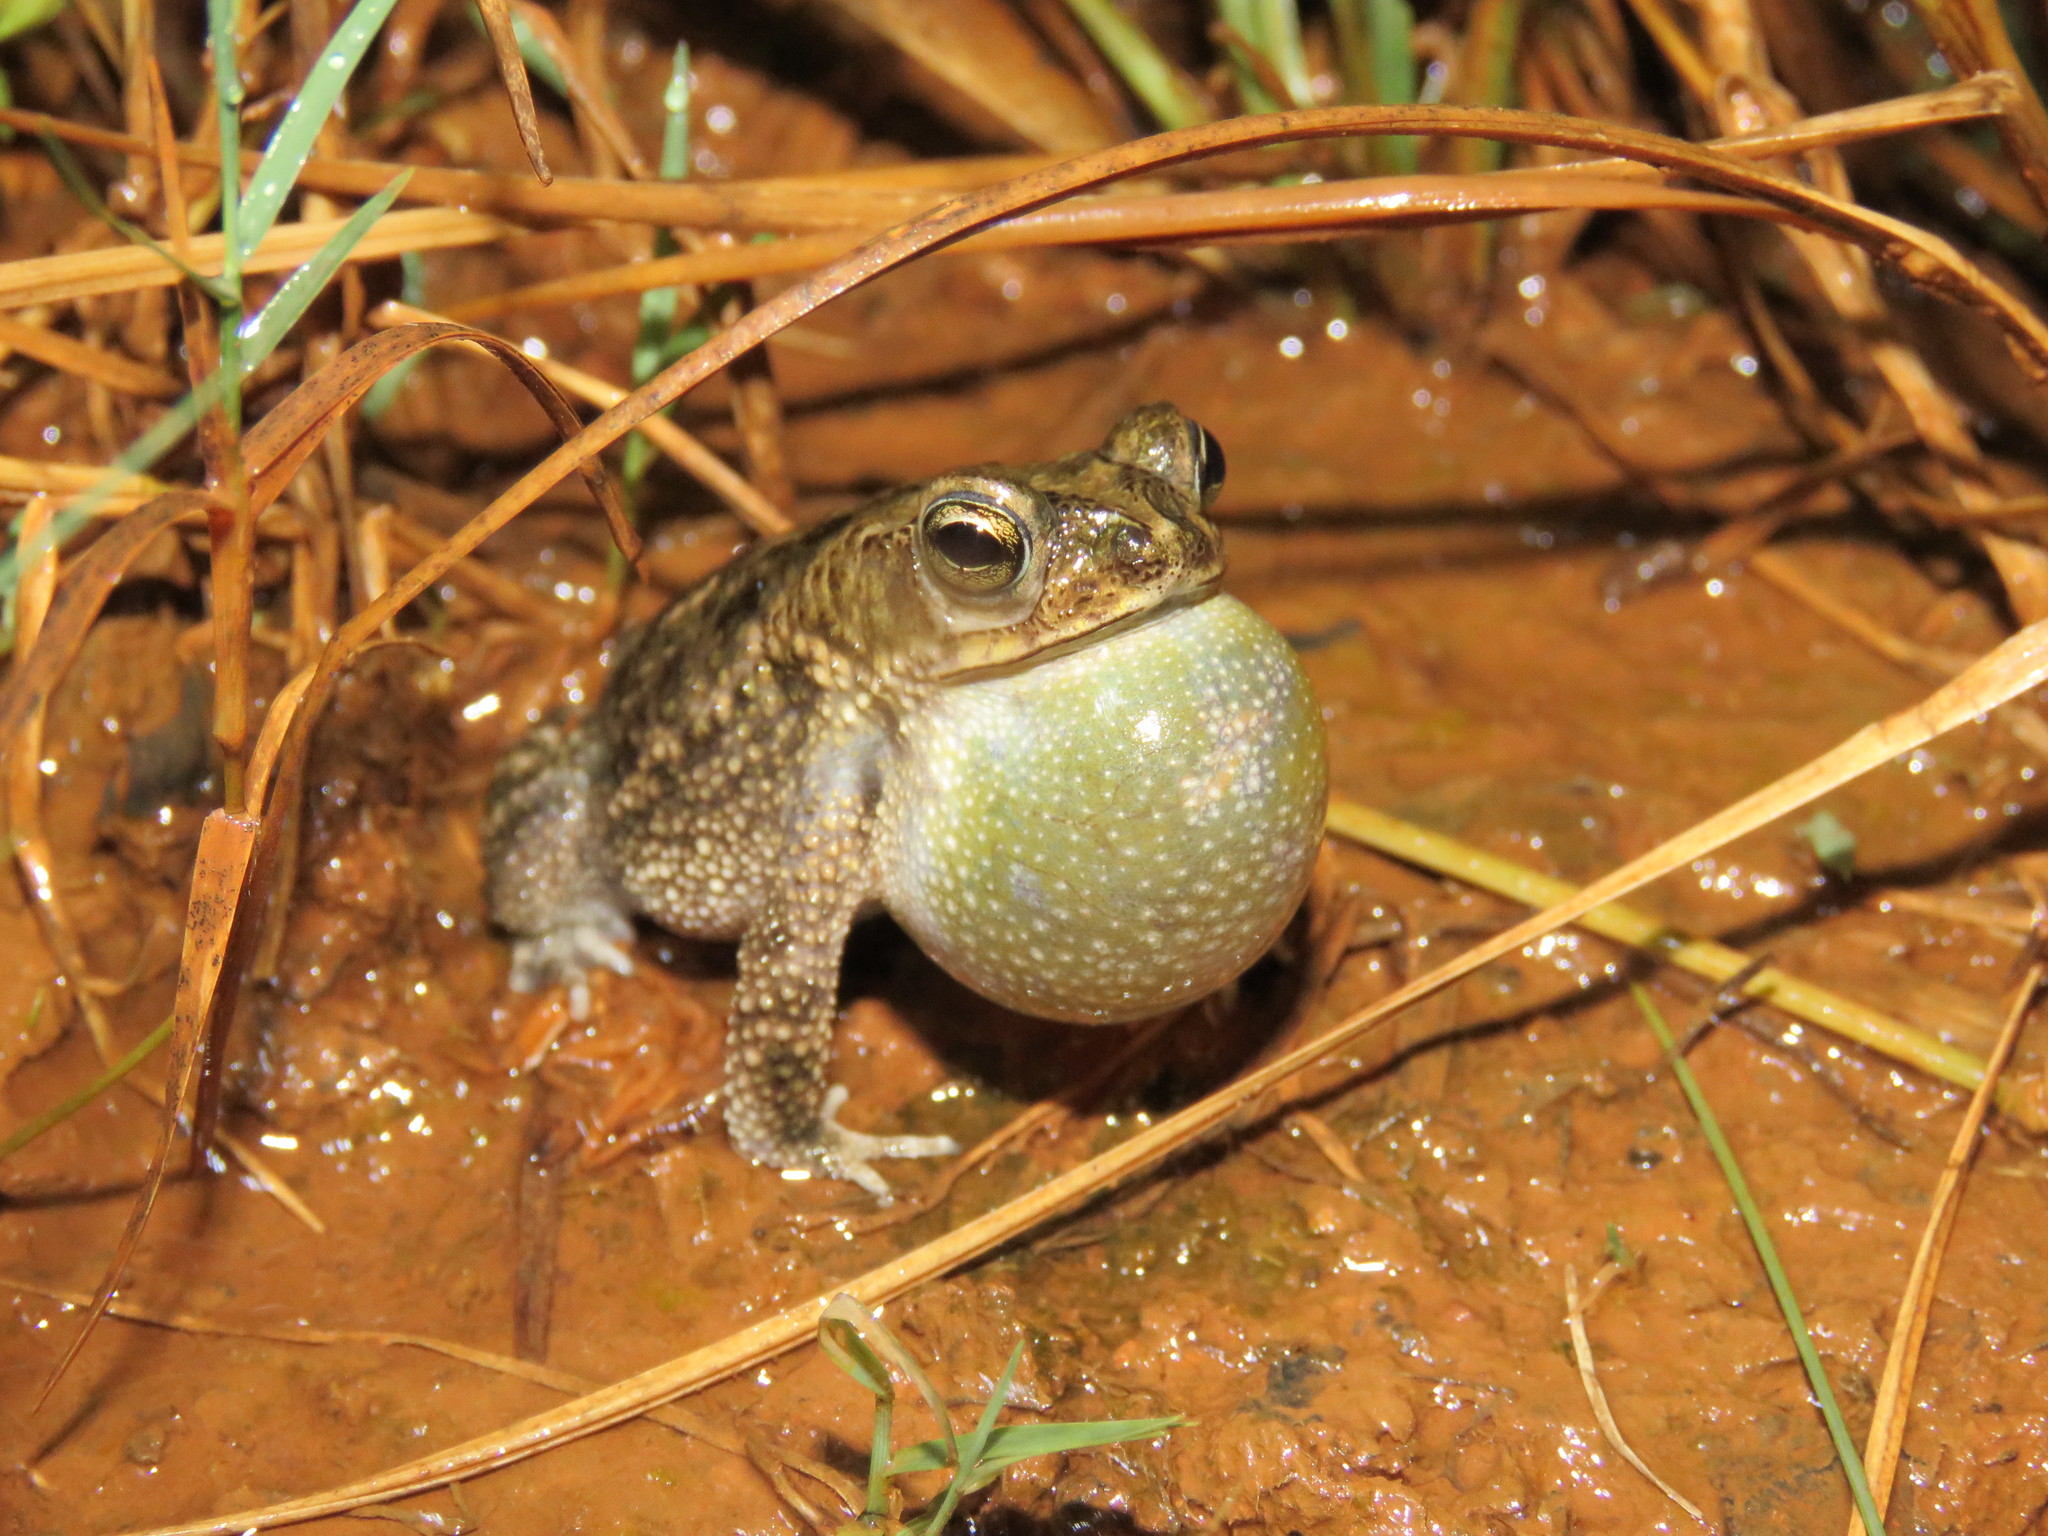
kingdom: Animalia
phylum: Chordata
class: Amphibia
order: Anura
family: Bufonidae
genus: Rhinella
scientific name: Rhinella major
